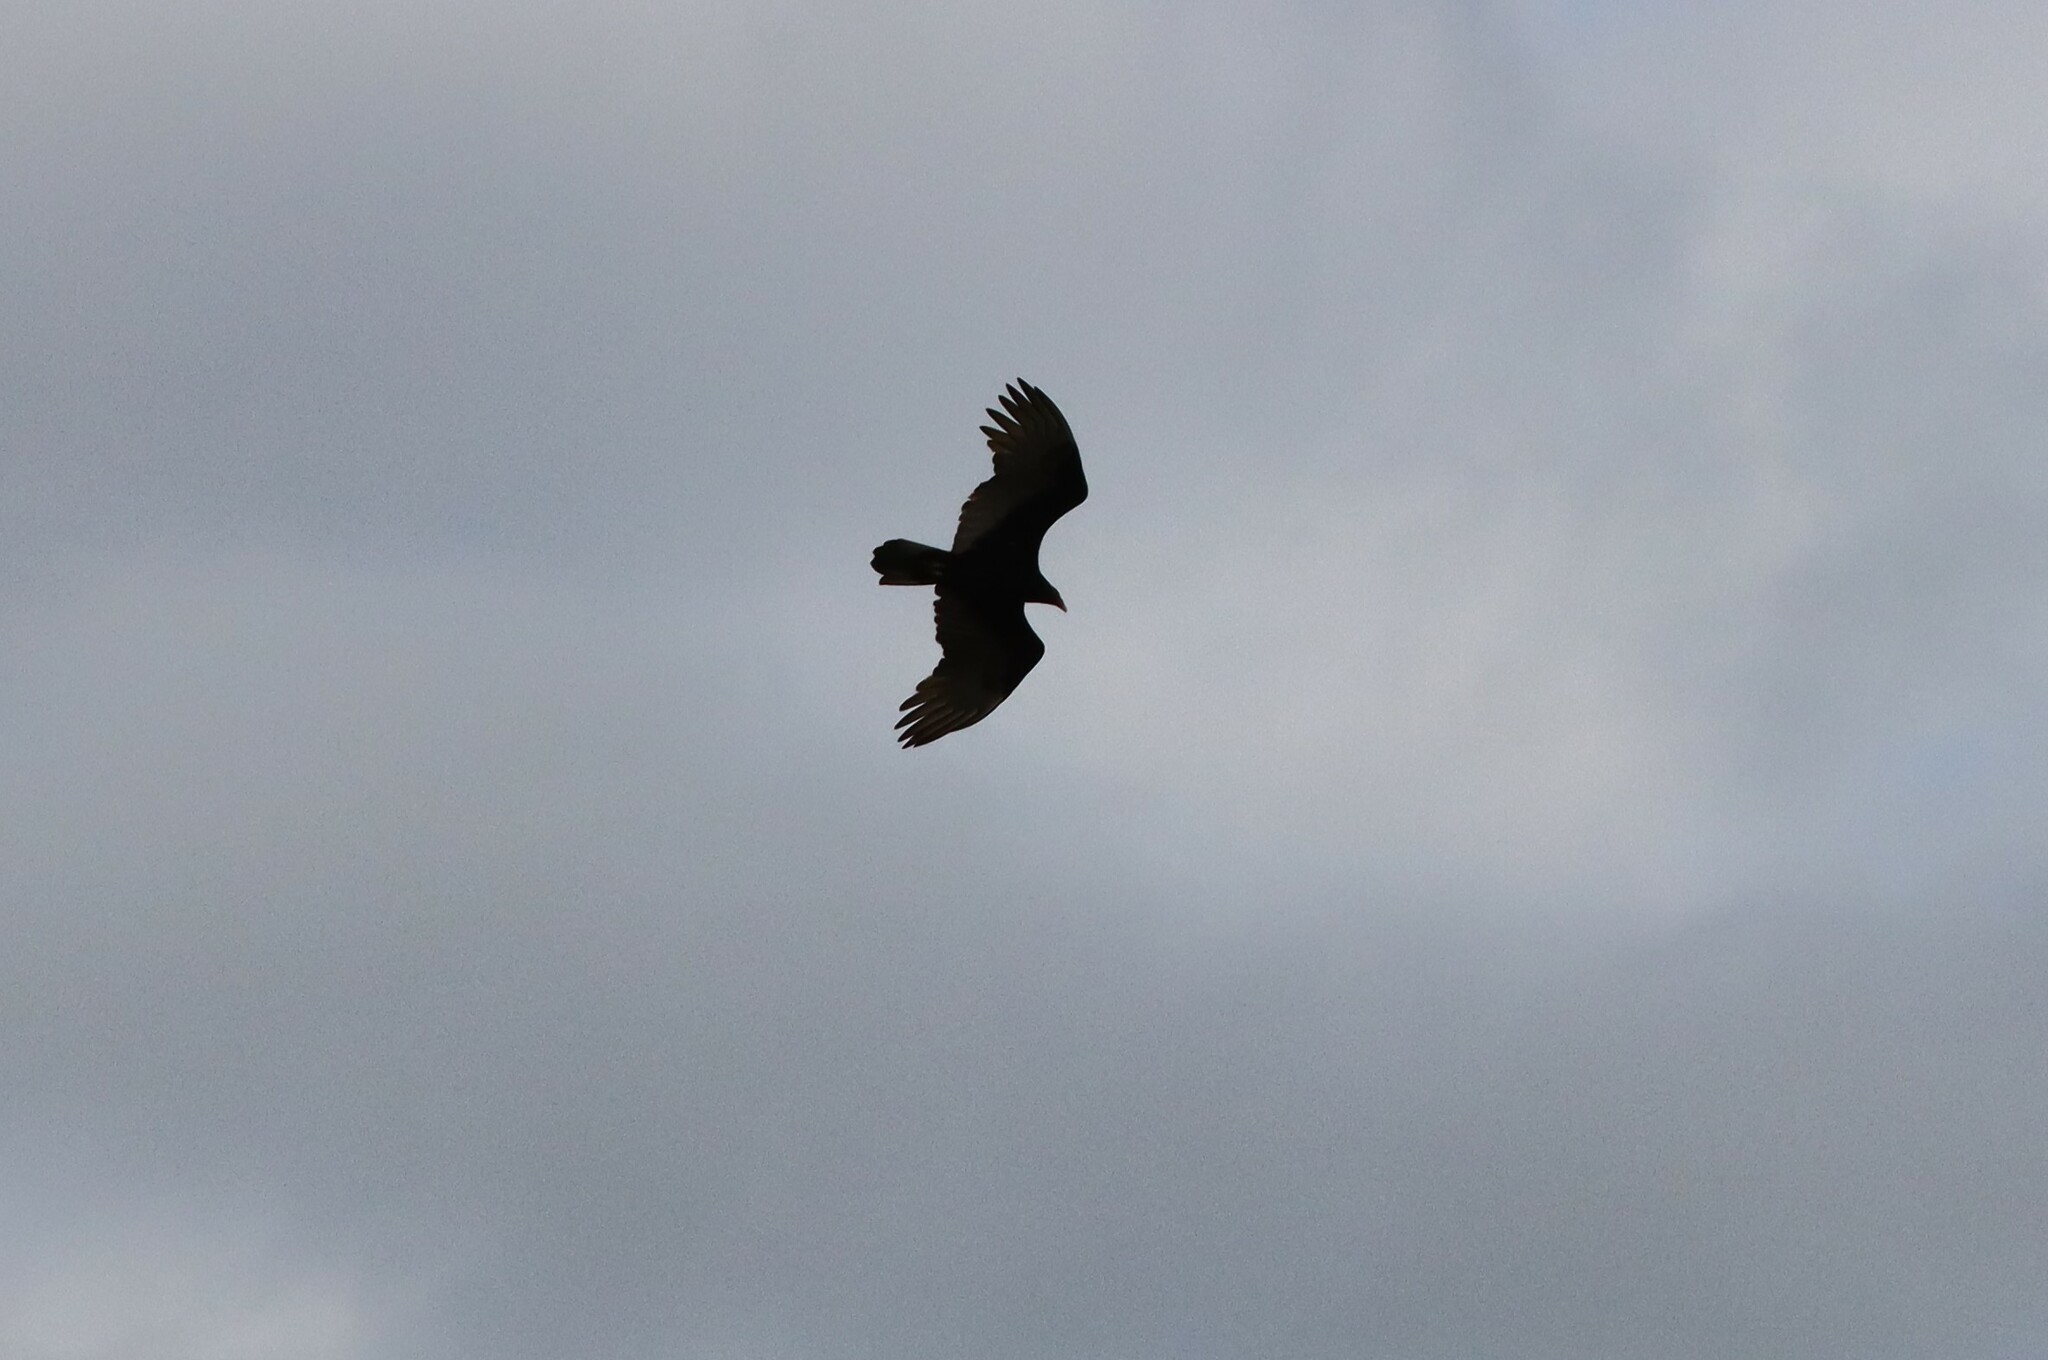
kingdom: Animalia
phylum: Chordata
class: Aves
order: Accipitriformes
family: Cathartidae
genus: Cathartes
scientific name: Cathartes aura
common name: Turkey vulture
